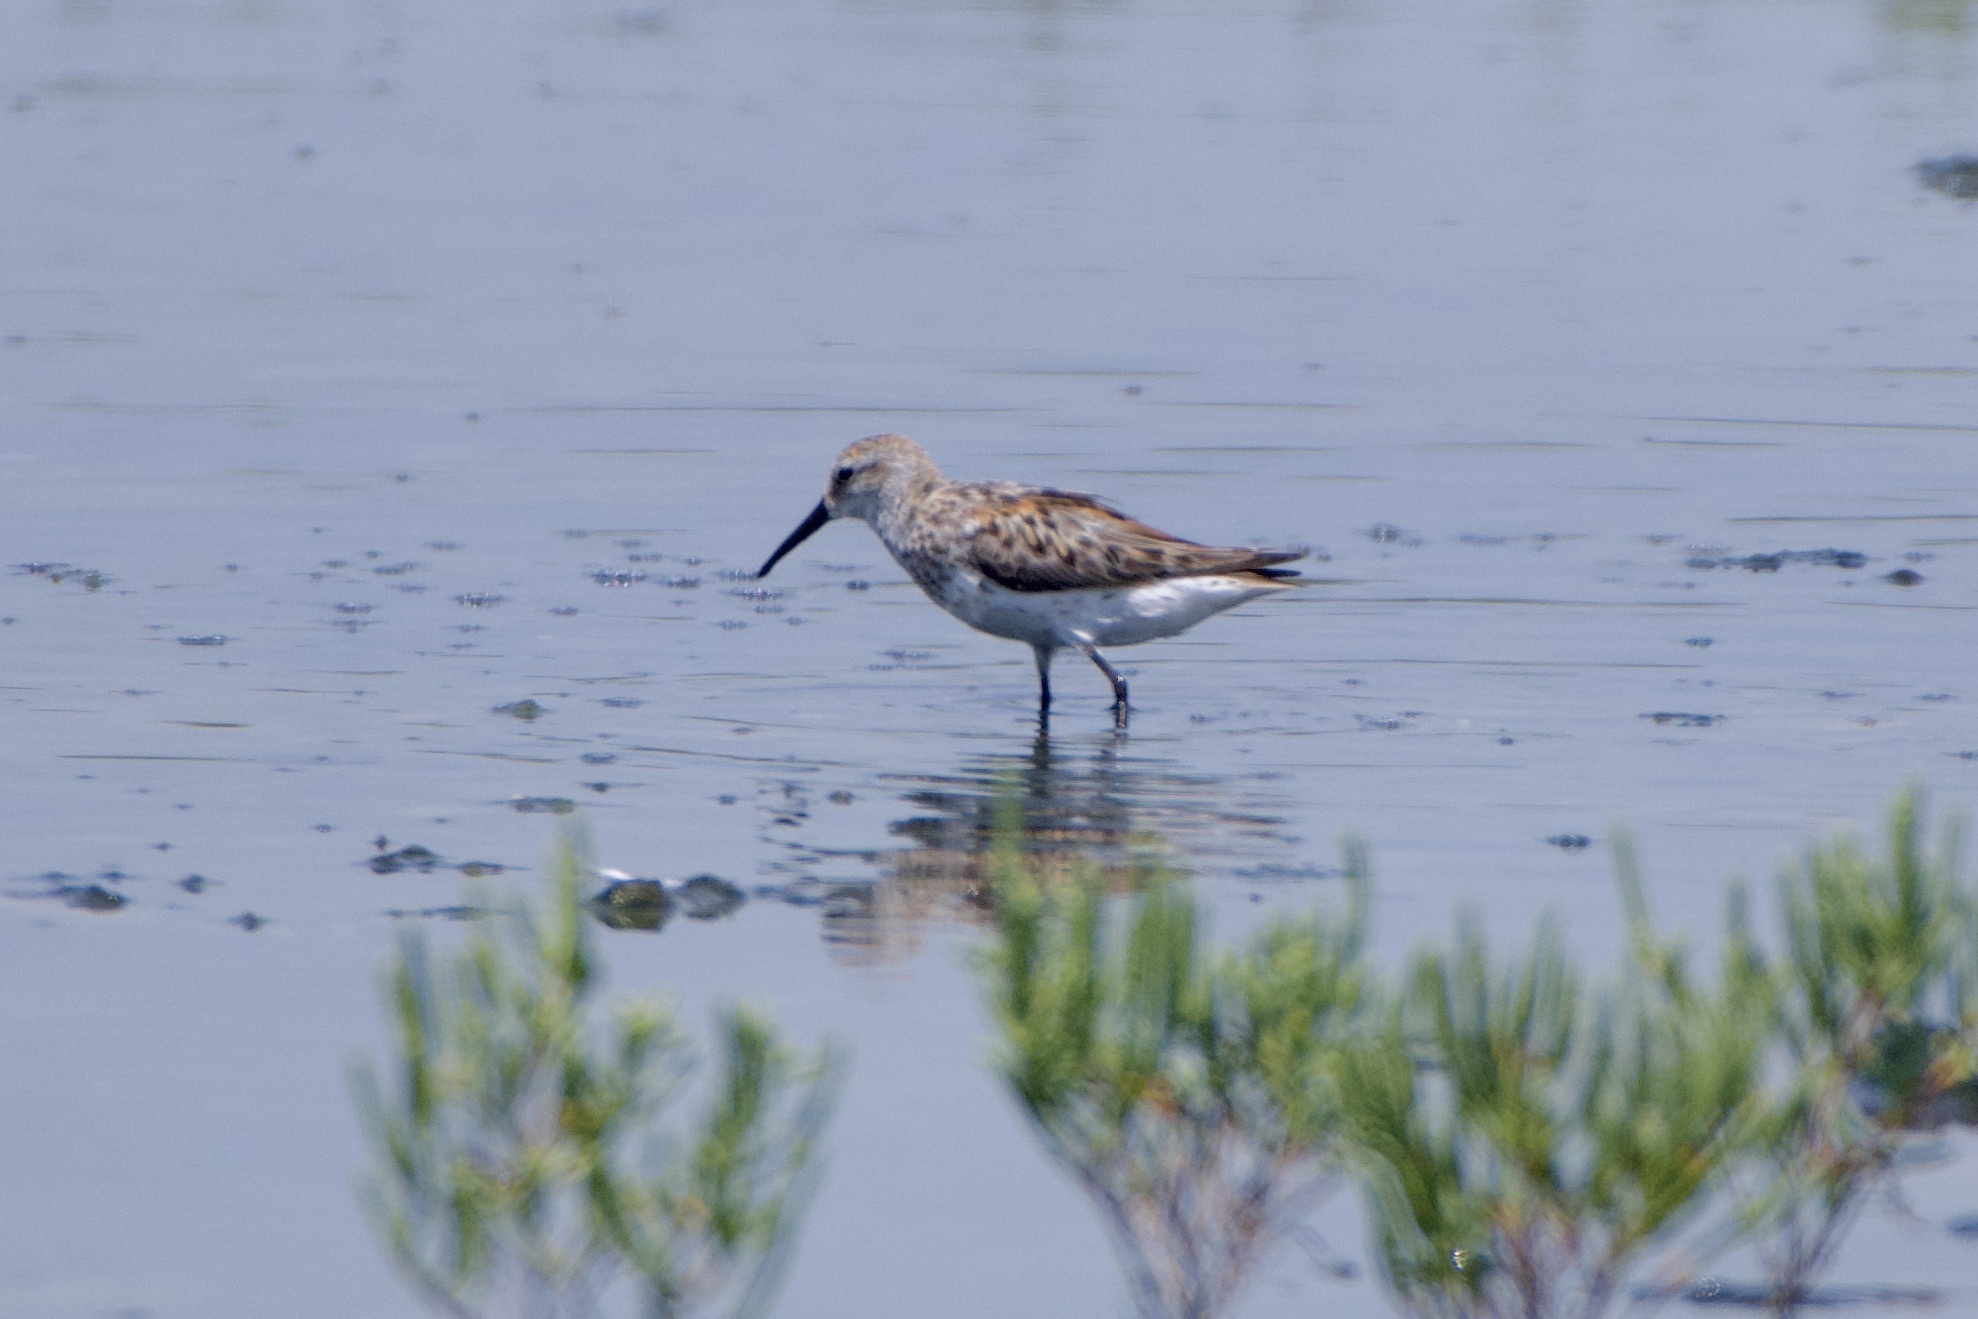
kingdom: Animalia
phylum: Chordata
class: Aves
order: Charadriiformes
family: Scolopacidae
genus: Calidris
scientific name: Calidris mauri
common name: Western sandpiper
